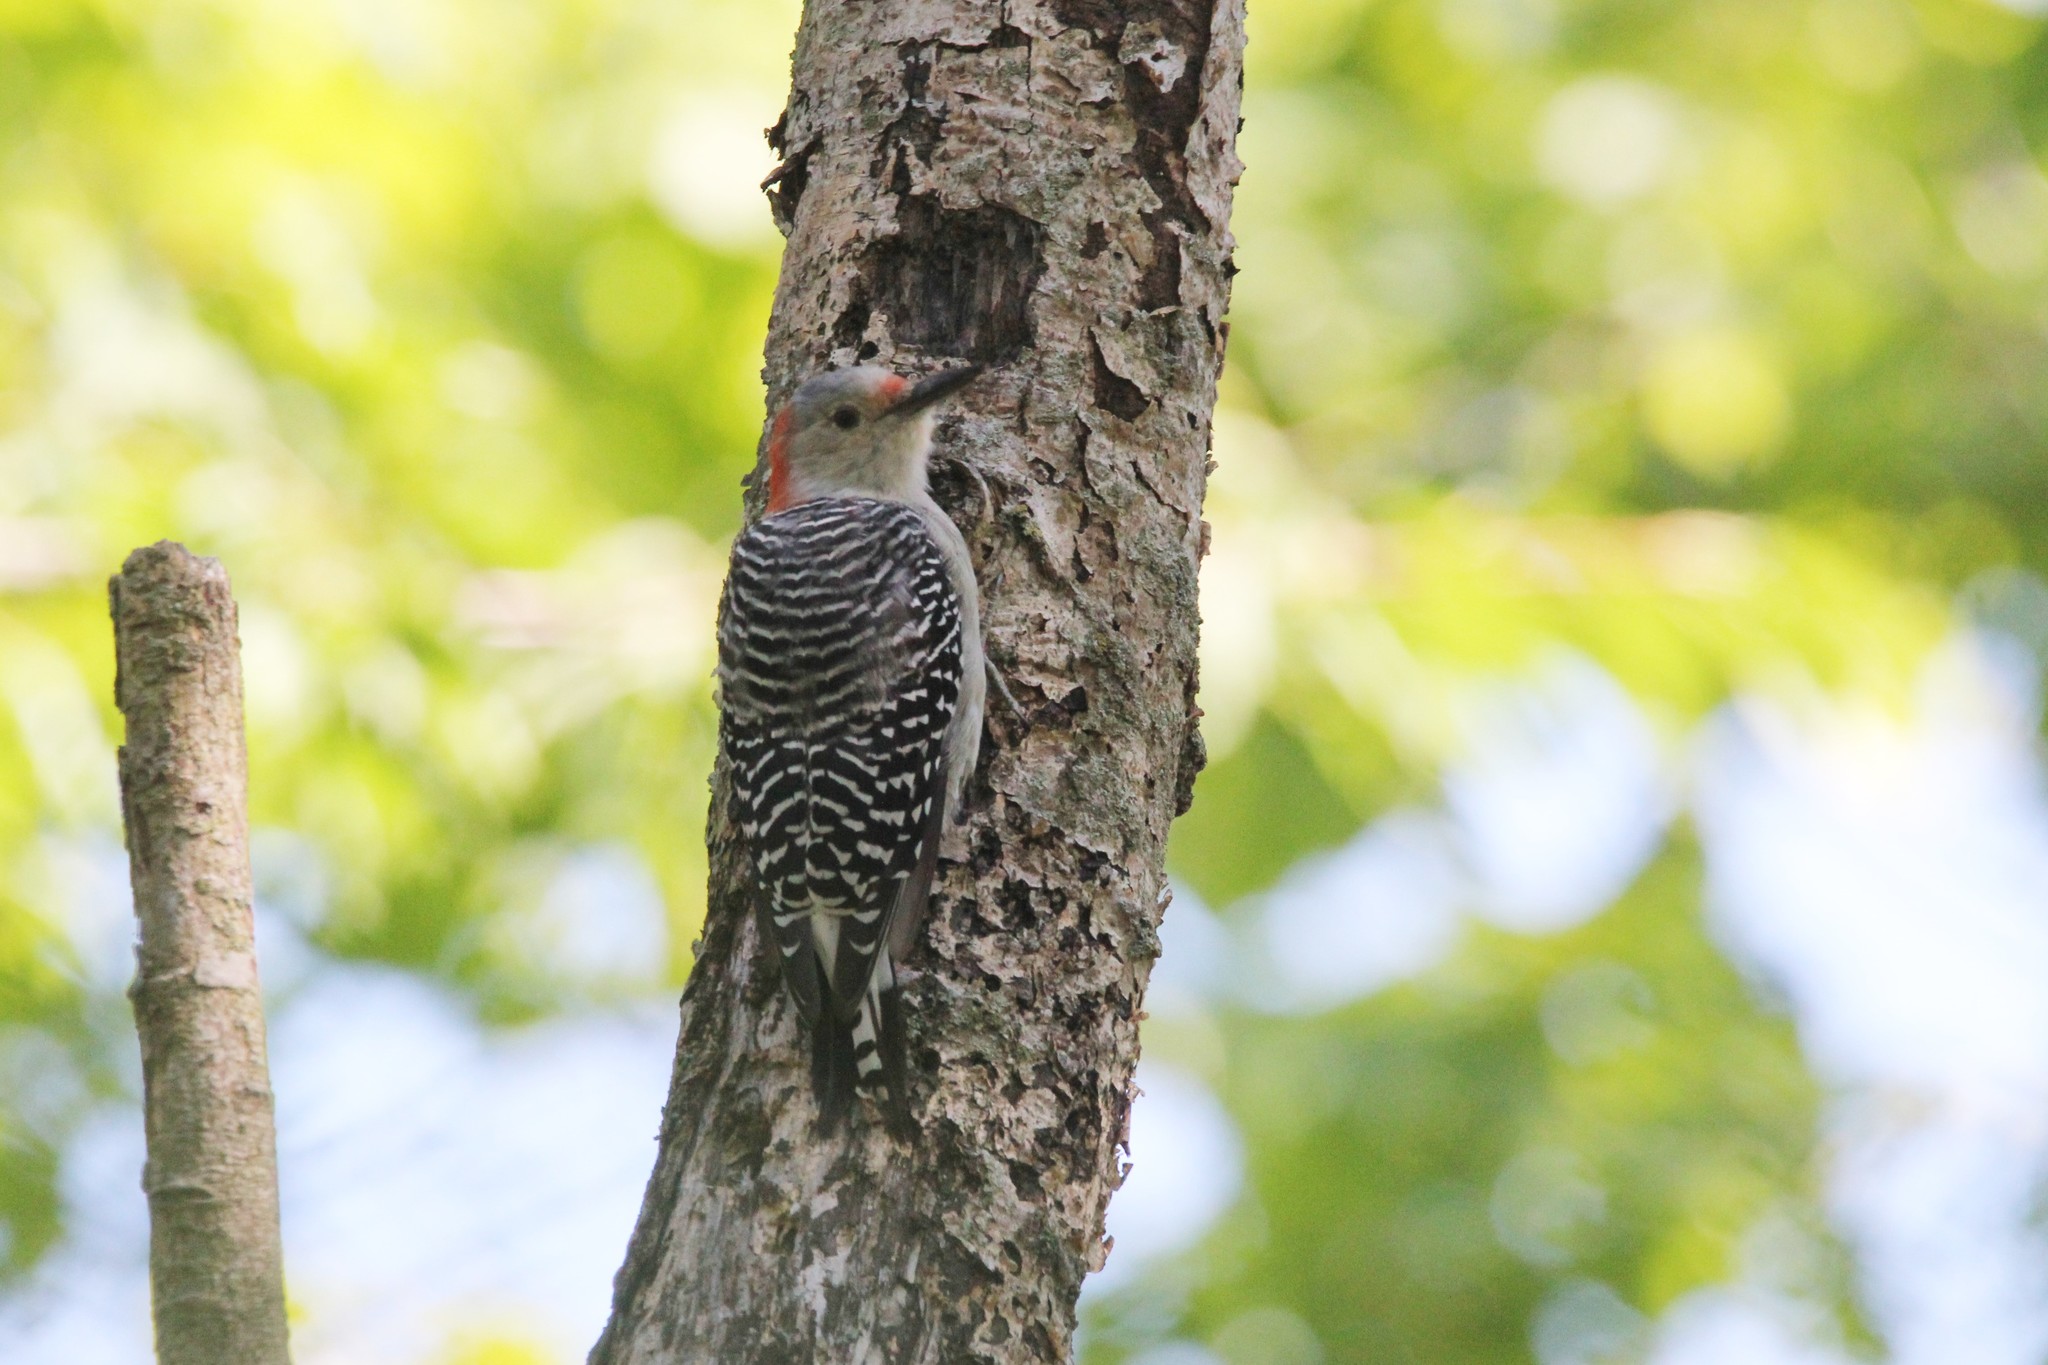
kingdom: Animalia
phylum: Chordata
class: Aves
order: Piciformes
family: Picidae
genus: Melanerpes
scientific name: Melanerpes carolinus
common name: Red-bellied woodpecker
